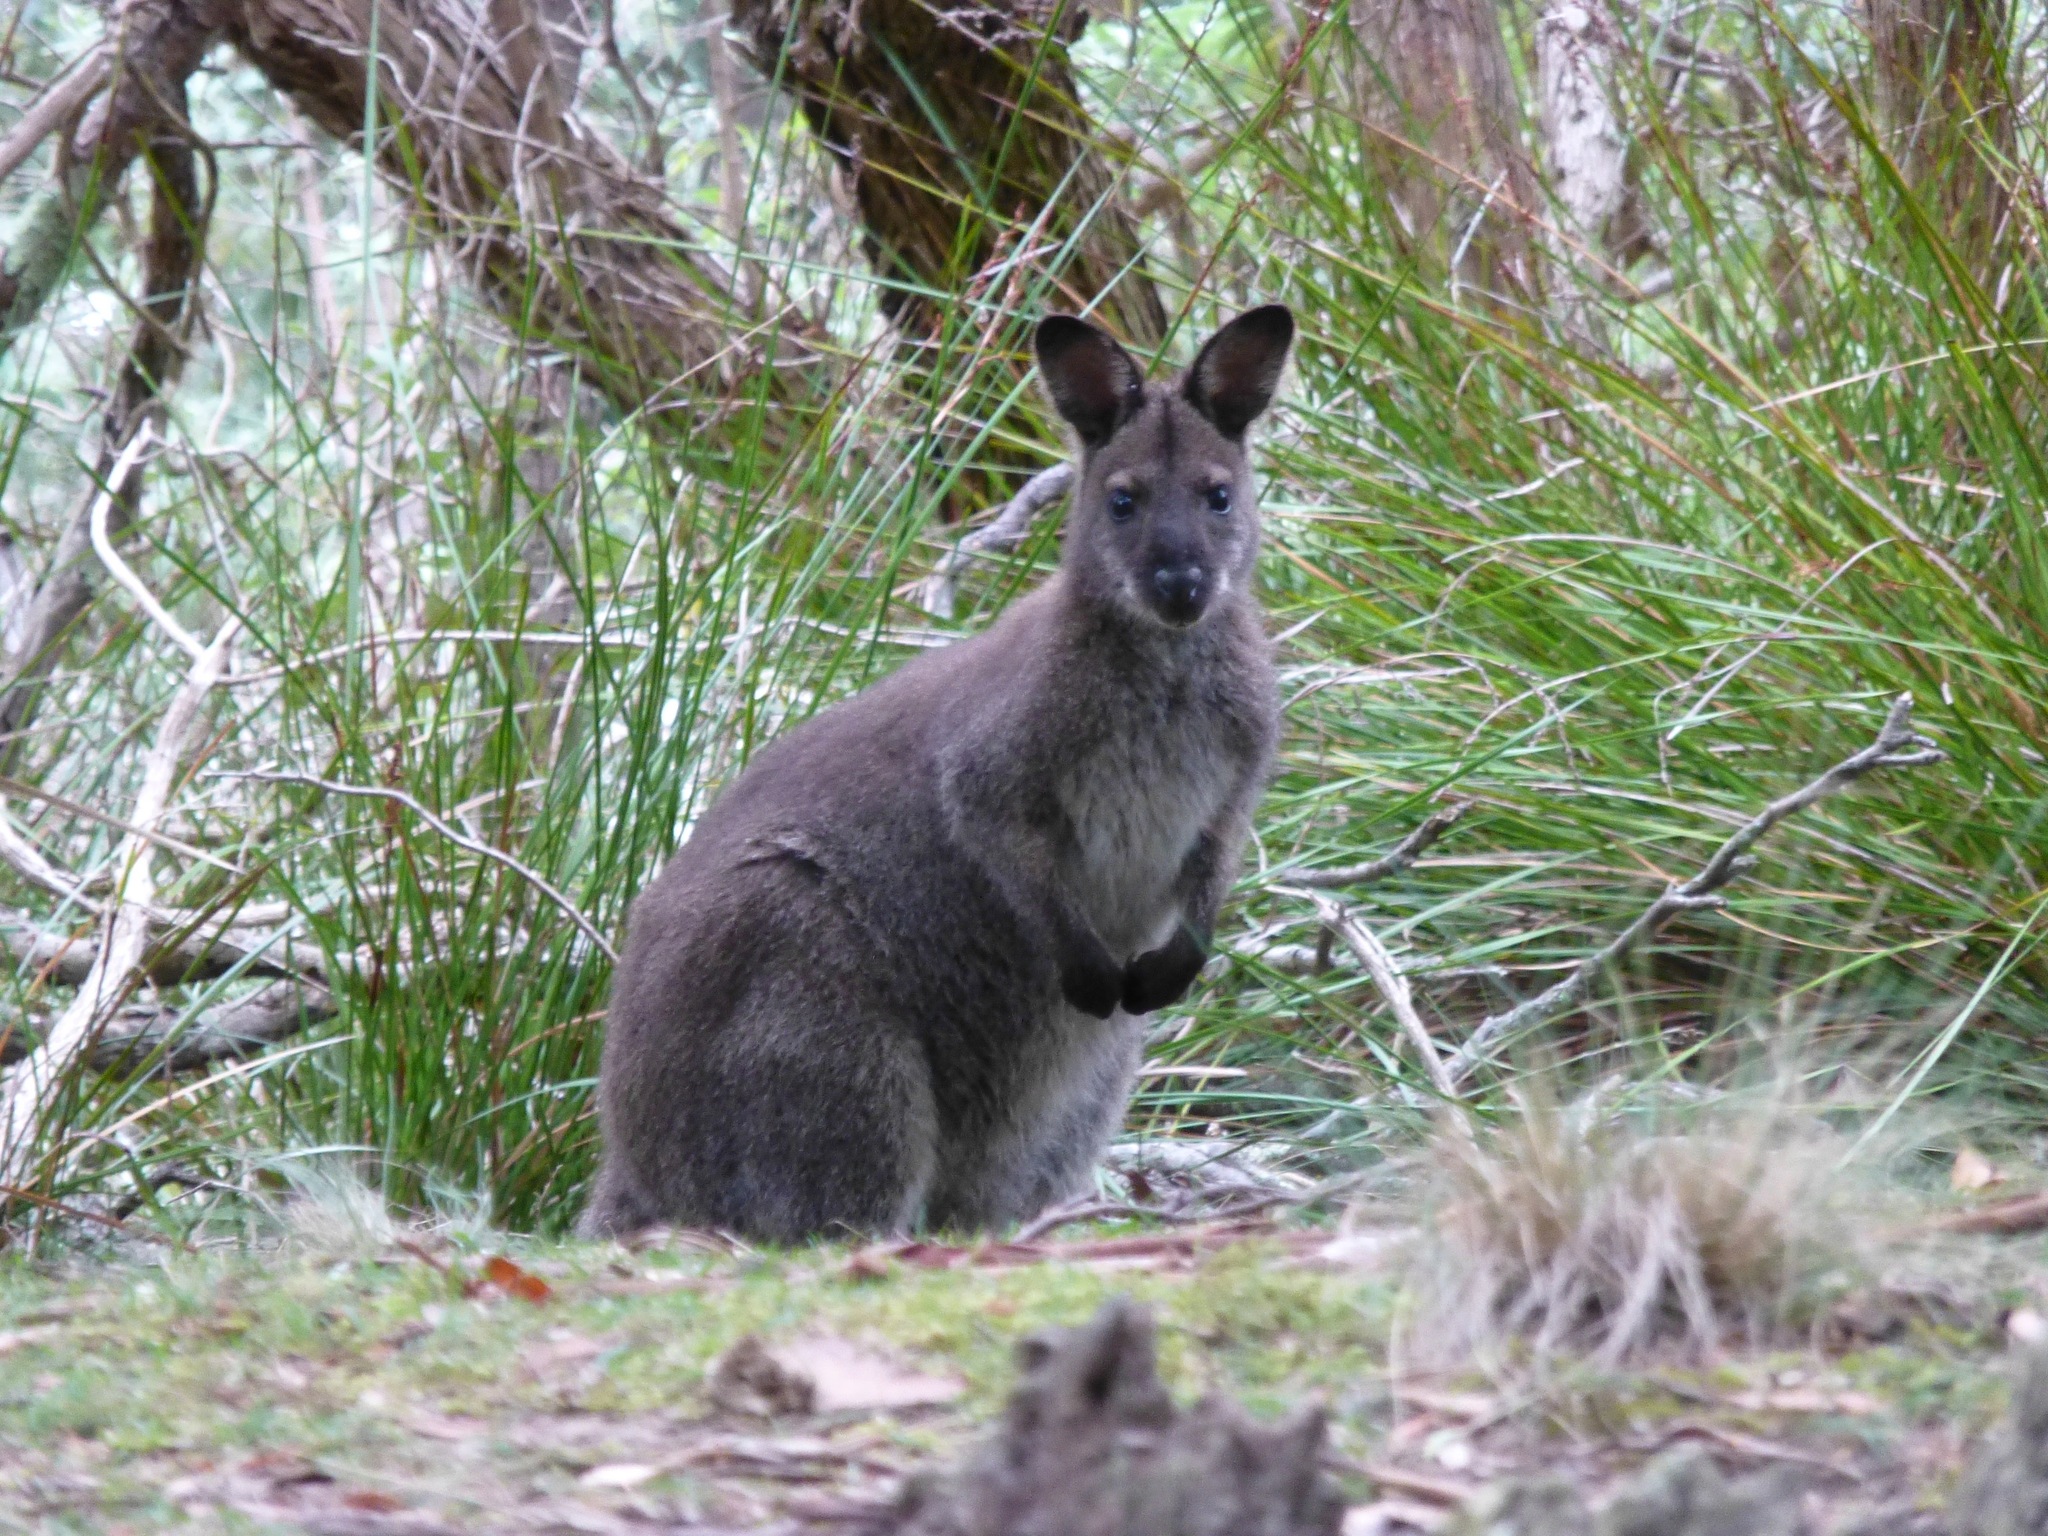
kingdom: Animalia
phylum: Chordata
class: Mammalia
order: Diprotodontia
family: Macropodidae
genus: Notamacropus
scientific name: Notamacropus rufogriseus
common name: Red-necked wallaby
